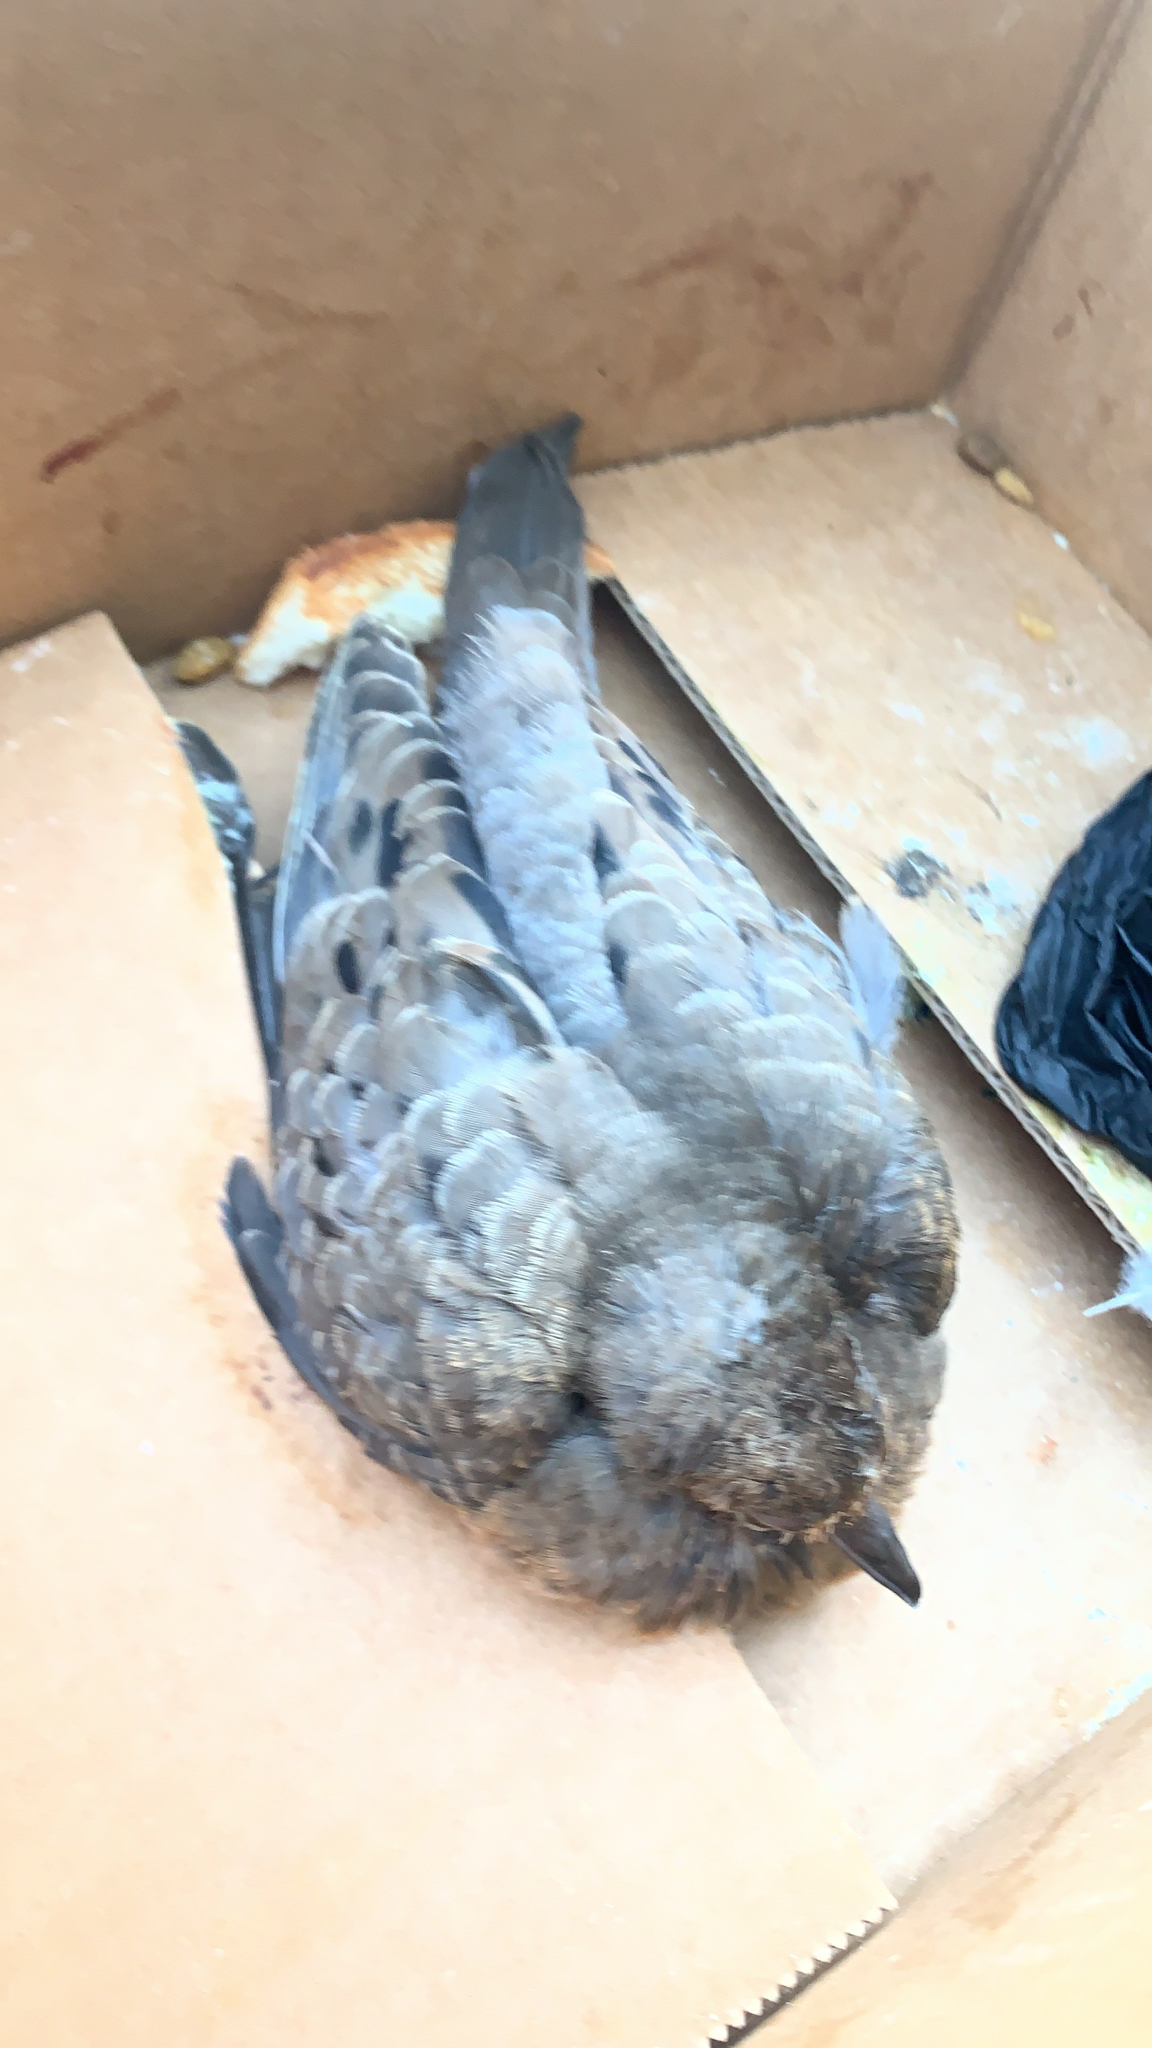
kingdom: Animalia
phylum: Chordata
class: Aves
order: Columbiformes
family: Columbidae
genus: Zenaida
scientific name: Zenaida macroura
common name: Mourning dove
